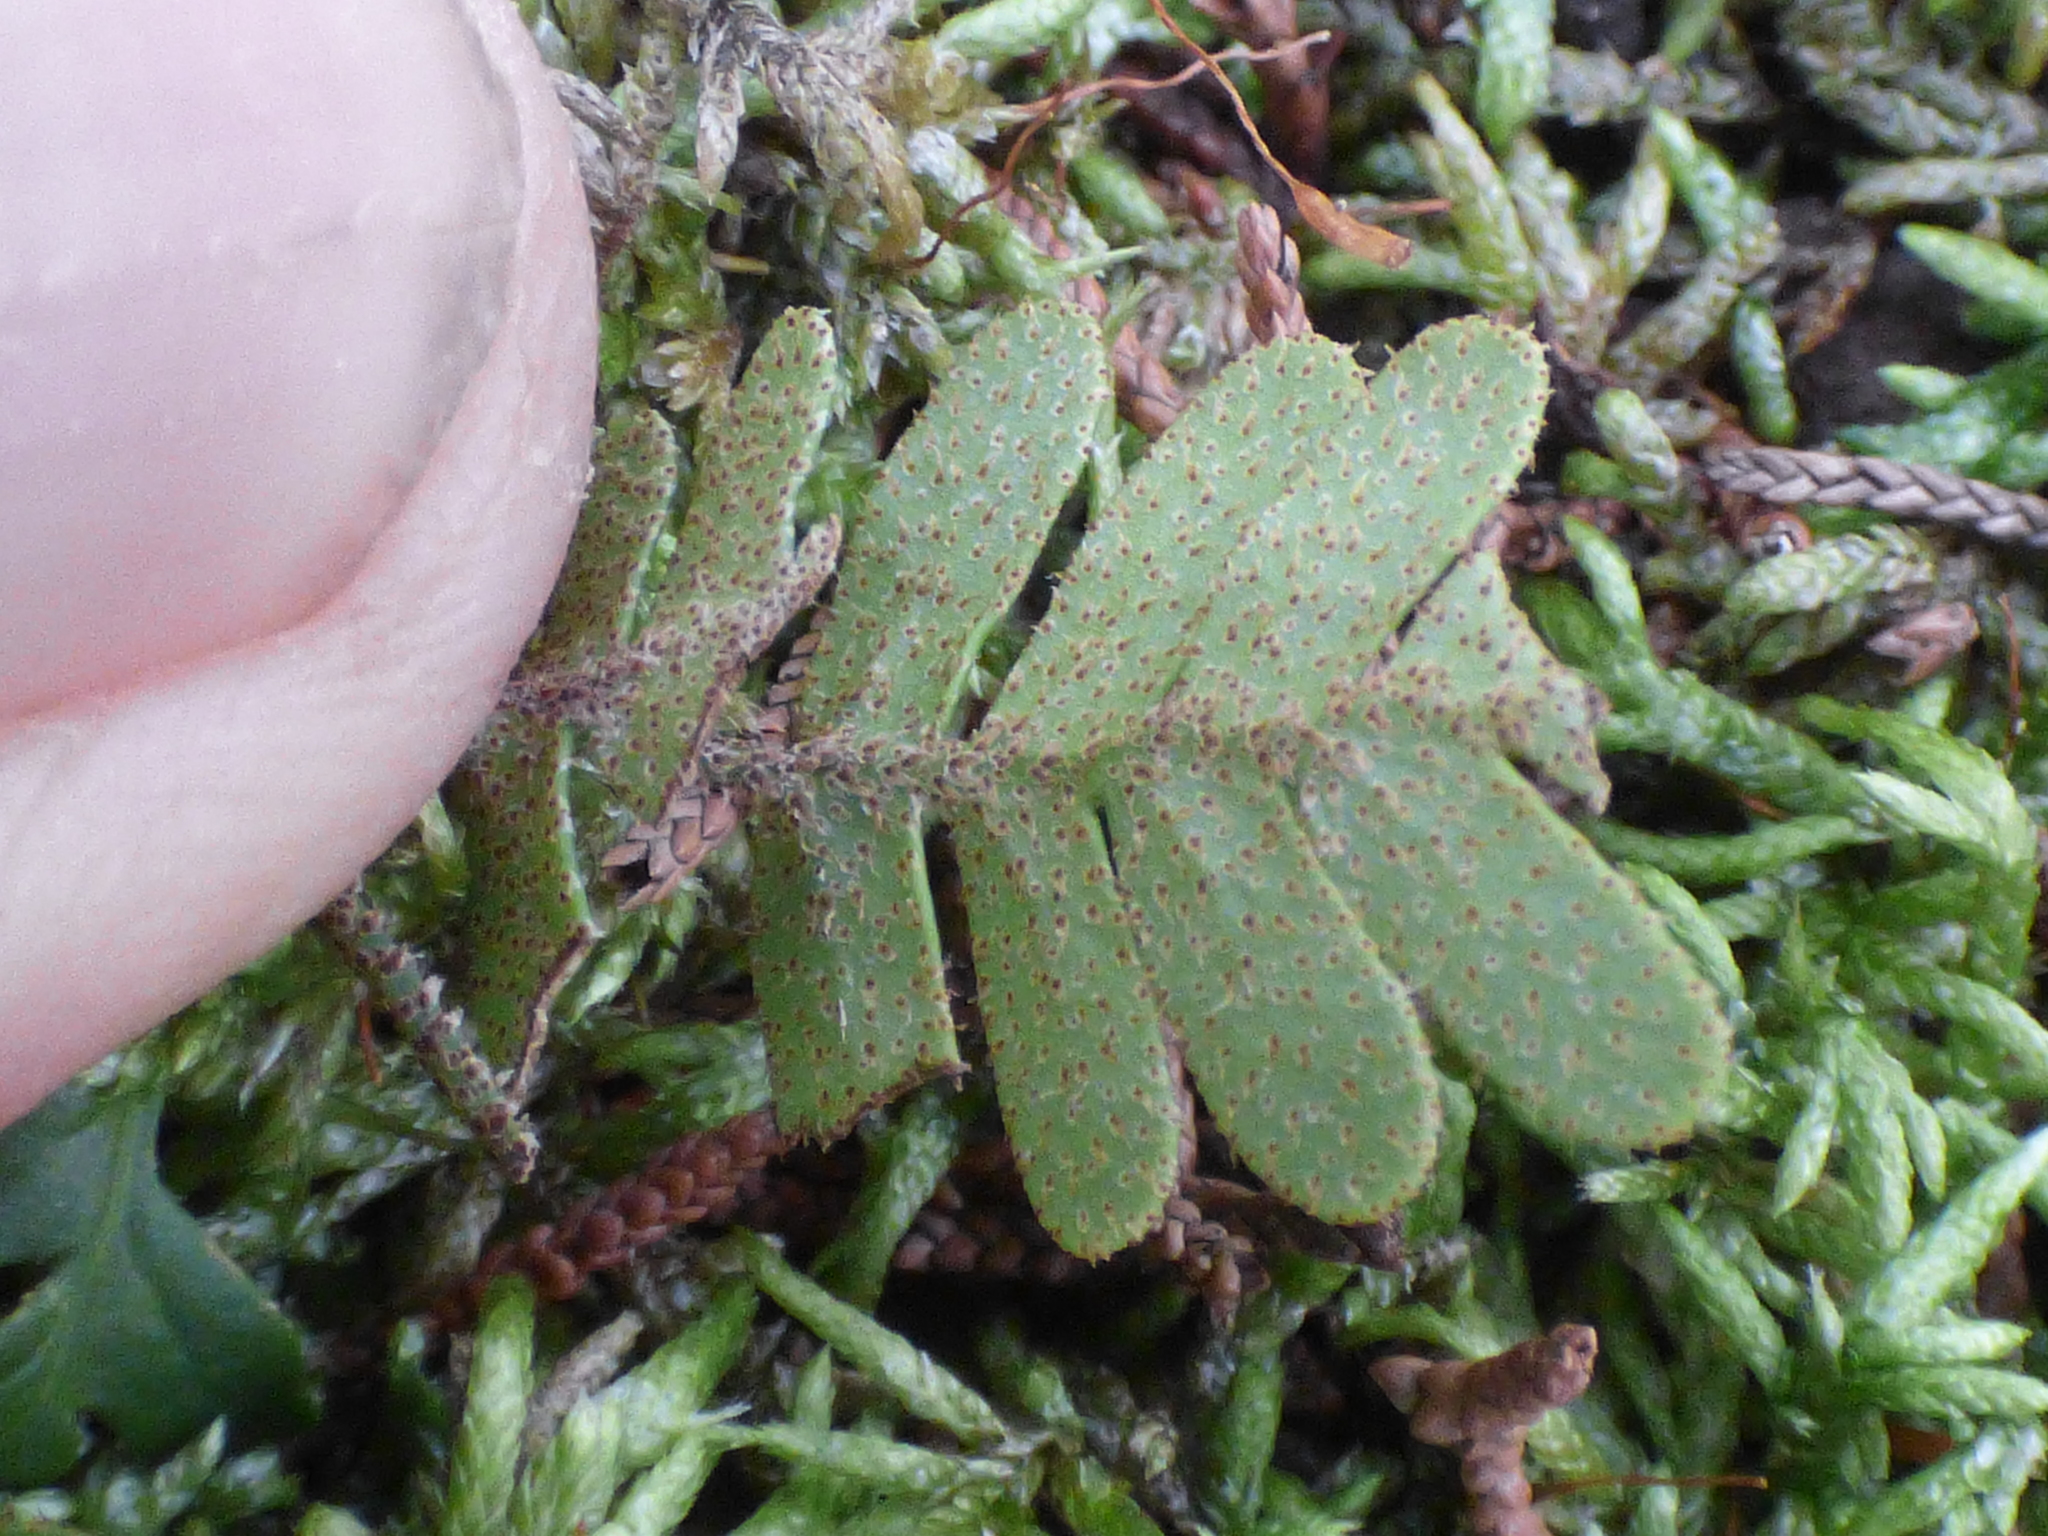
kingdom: Plantae
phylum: Tracheophyta
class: Polypodiopsida
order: Polypodiales
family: Polypodiaceae
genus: Pleopeltis
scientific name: Pleopeltis michauxiana
